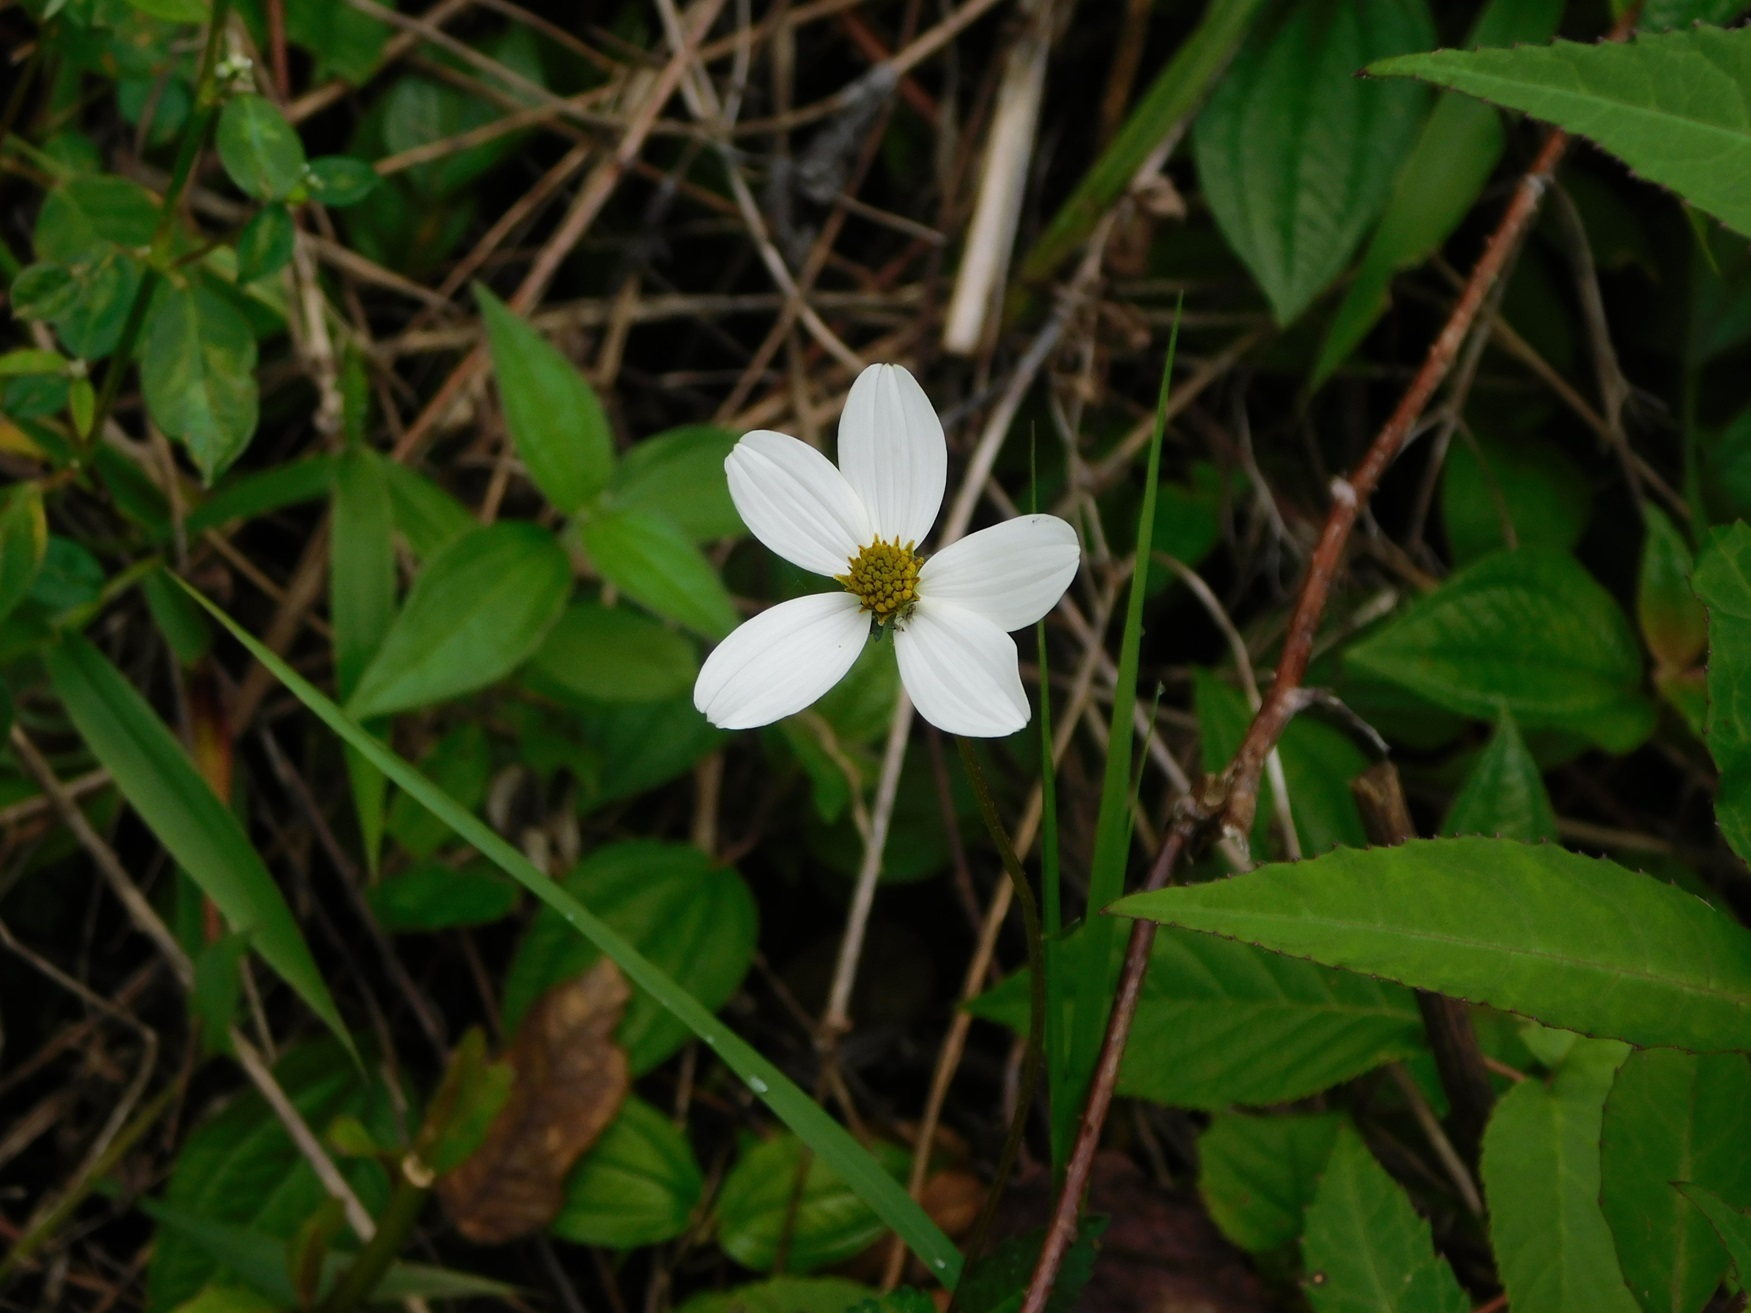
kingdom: Plantae
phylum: Tracheophyta
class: Magnoliopsida
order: Asterales
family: Asteraceae
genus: Bidens
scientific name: Bidens
